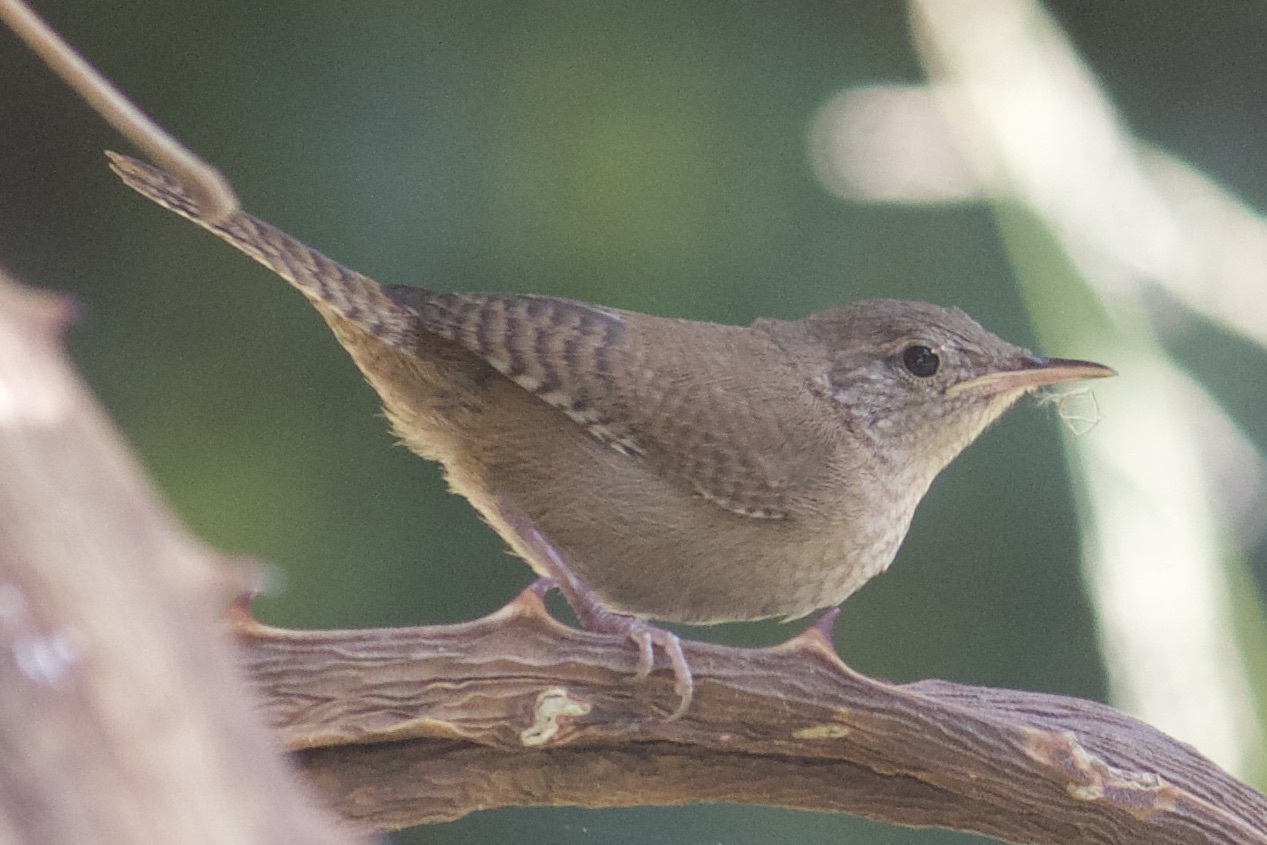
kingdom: Animalia
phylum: Chordata
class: Aves
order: Passeriformes
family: Troglodytidae
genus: Troglodytes
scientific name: Troglodytes aedon
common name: House wren
